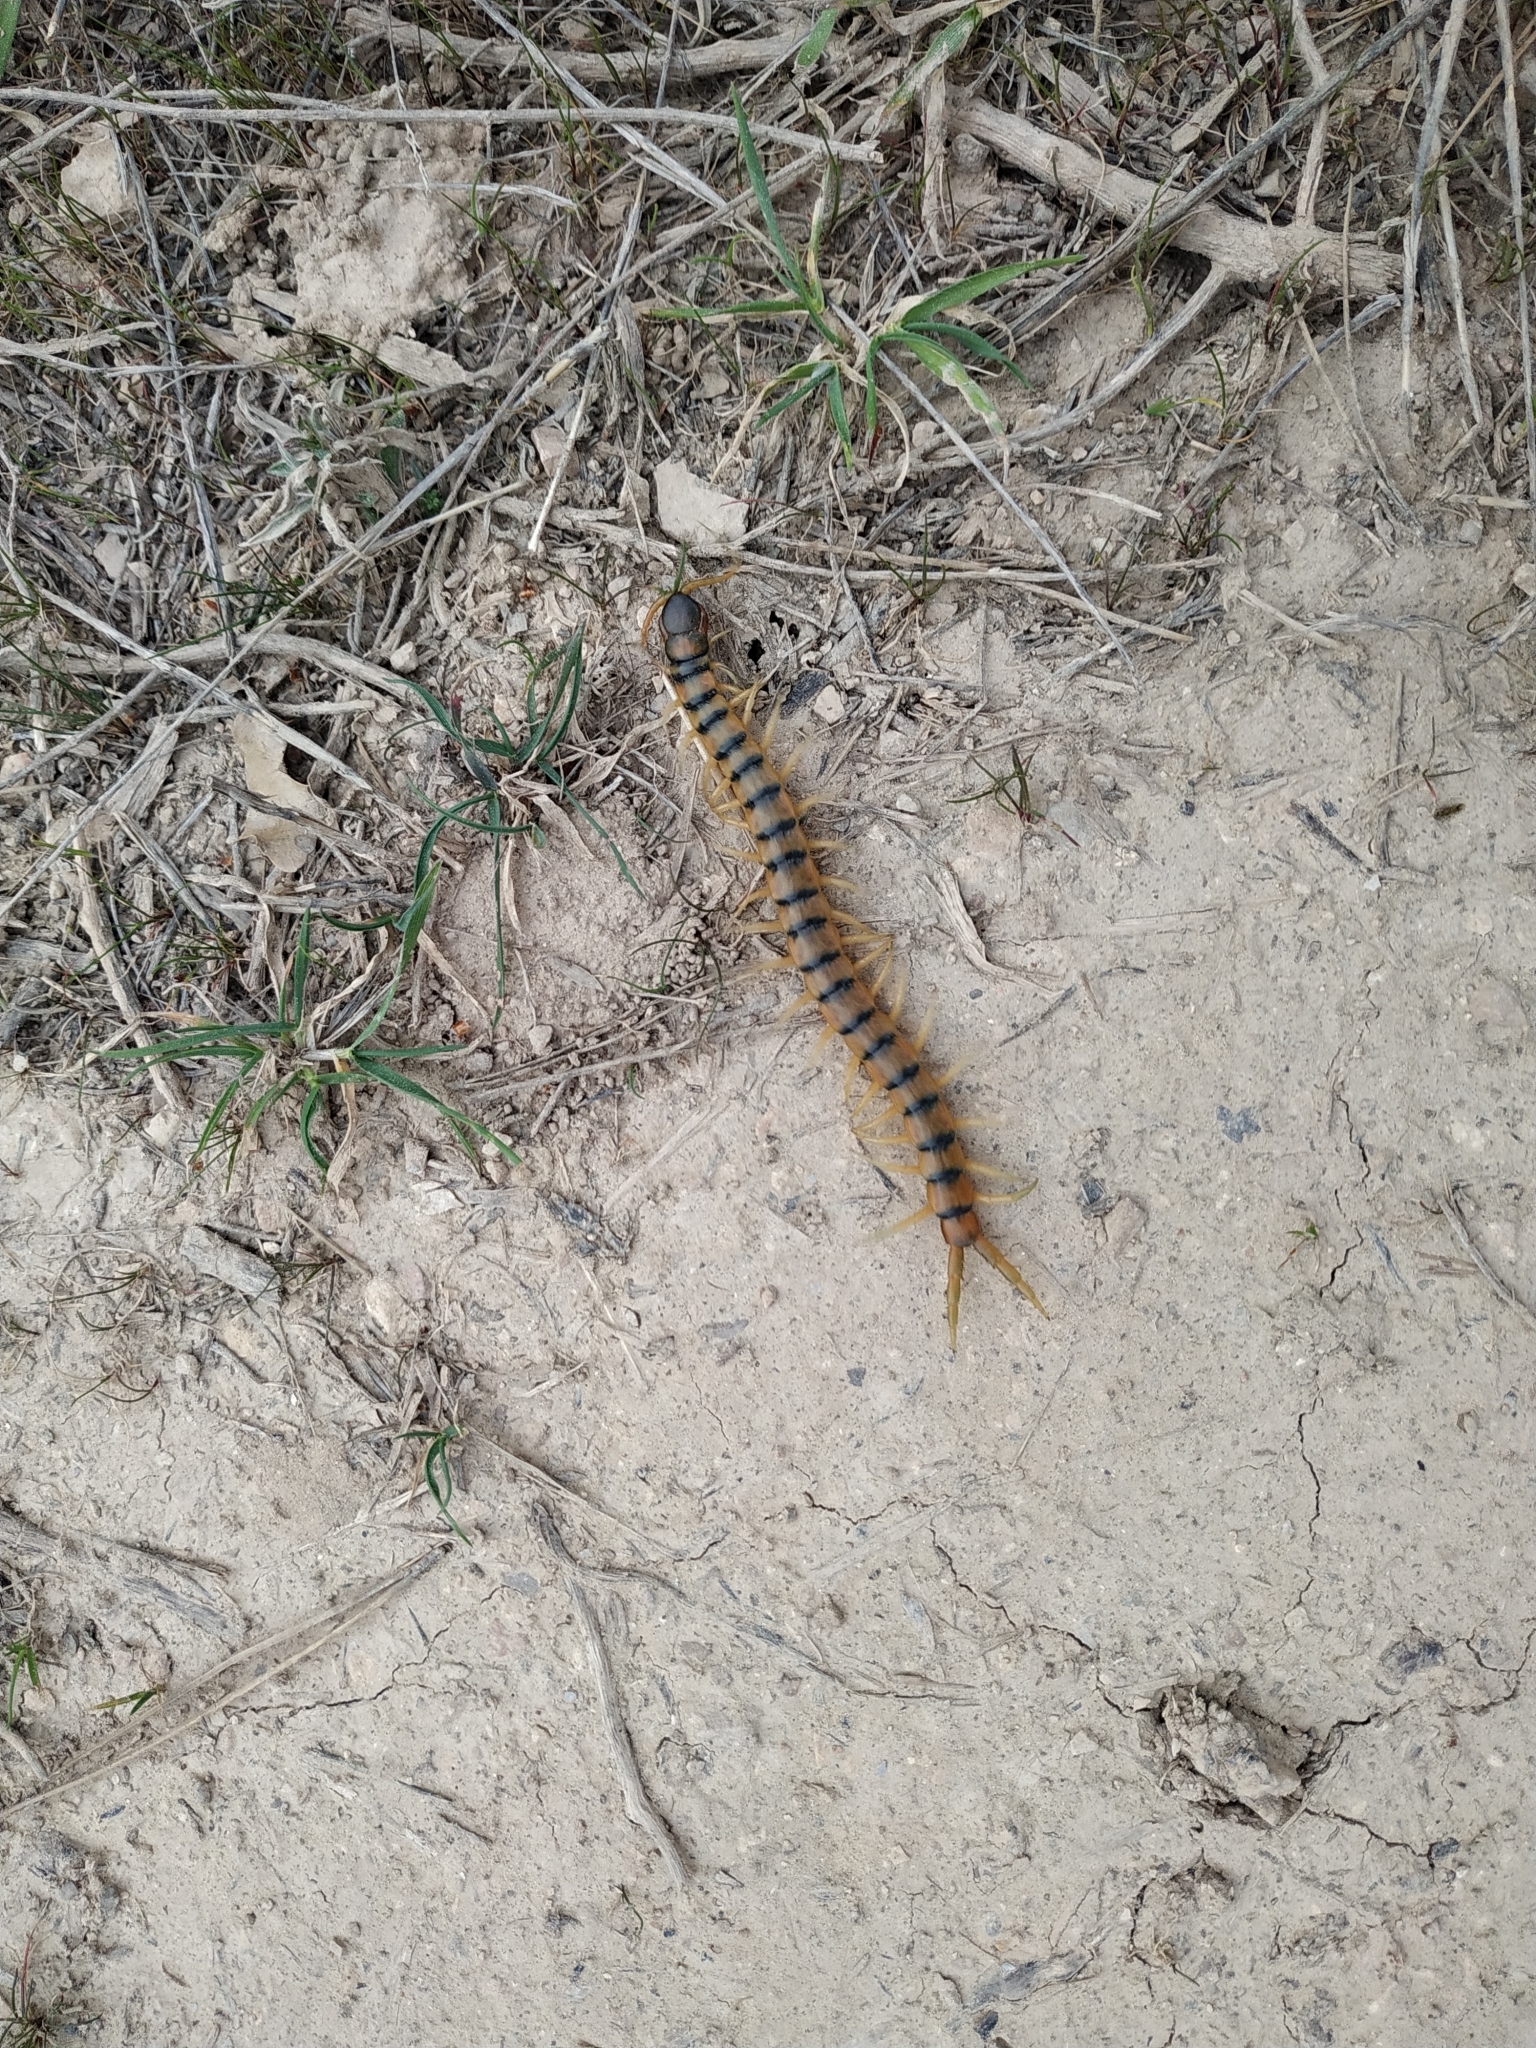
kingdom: Animalia
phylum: Arthropoda
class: Chilopoda
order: Scolopendromorpha
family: Scolopendridae
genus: Scolopendra
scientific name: Scolopendra cingulata
